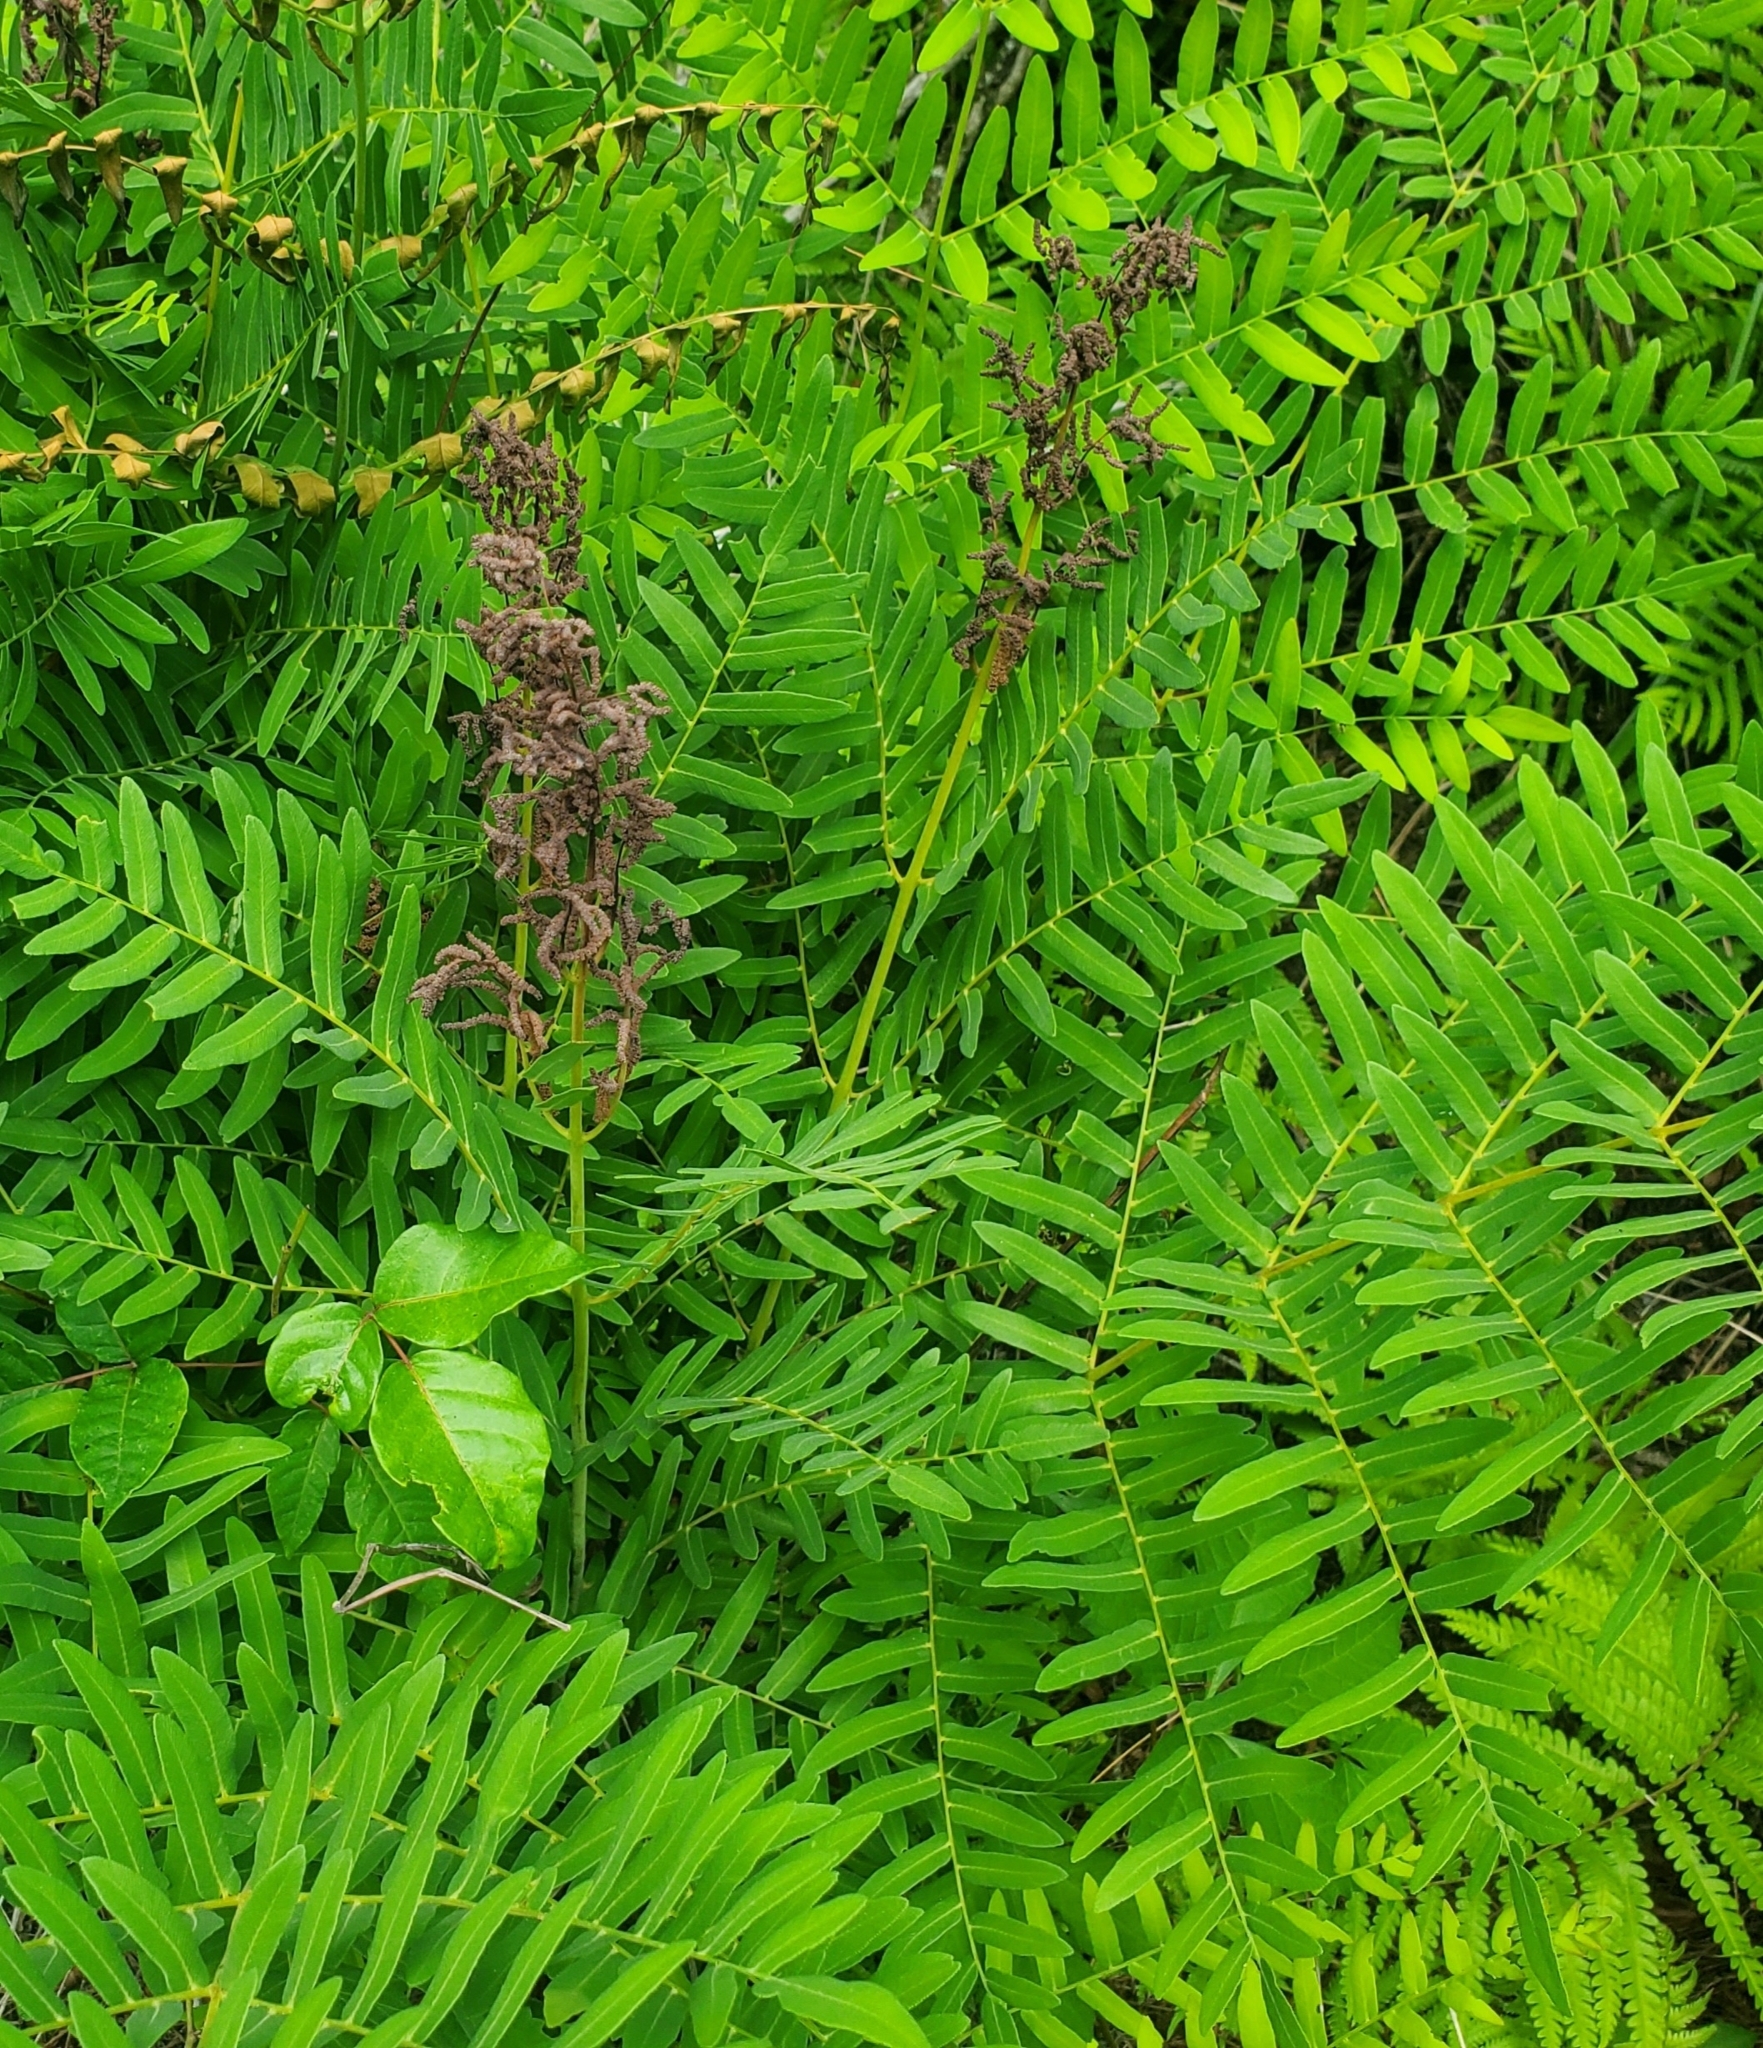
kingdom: Plantae
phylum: Tracheophyta
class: Polypodiopsida
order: Osmundales
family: Osmundaceae
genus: Osmunda
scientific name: Osmunda spectabilis
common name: American royal fern
